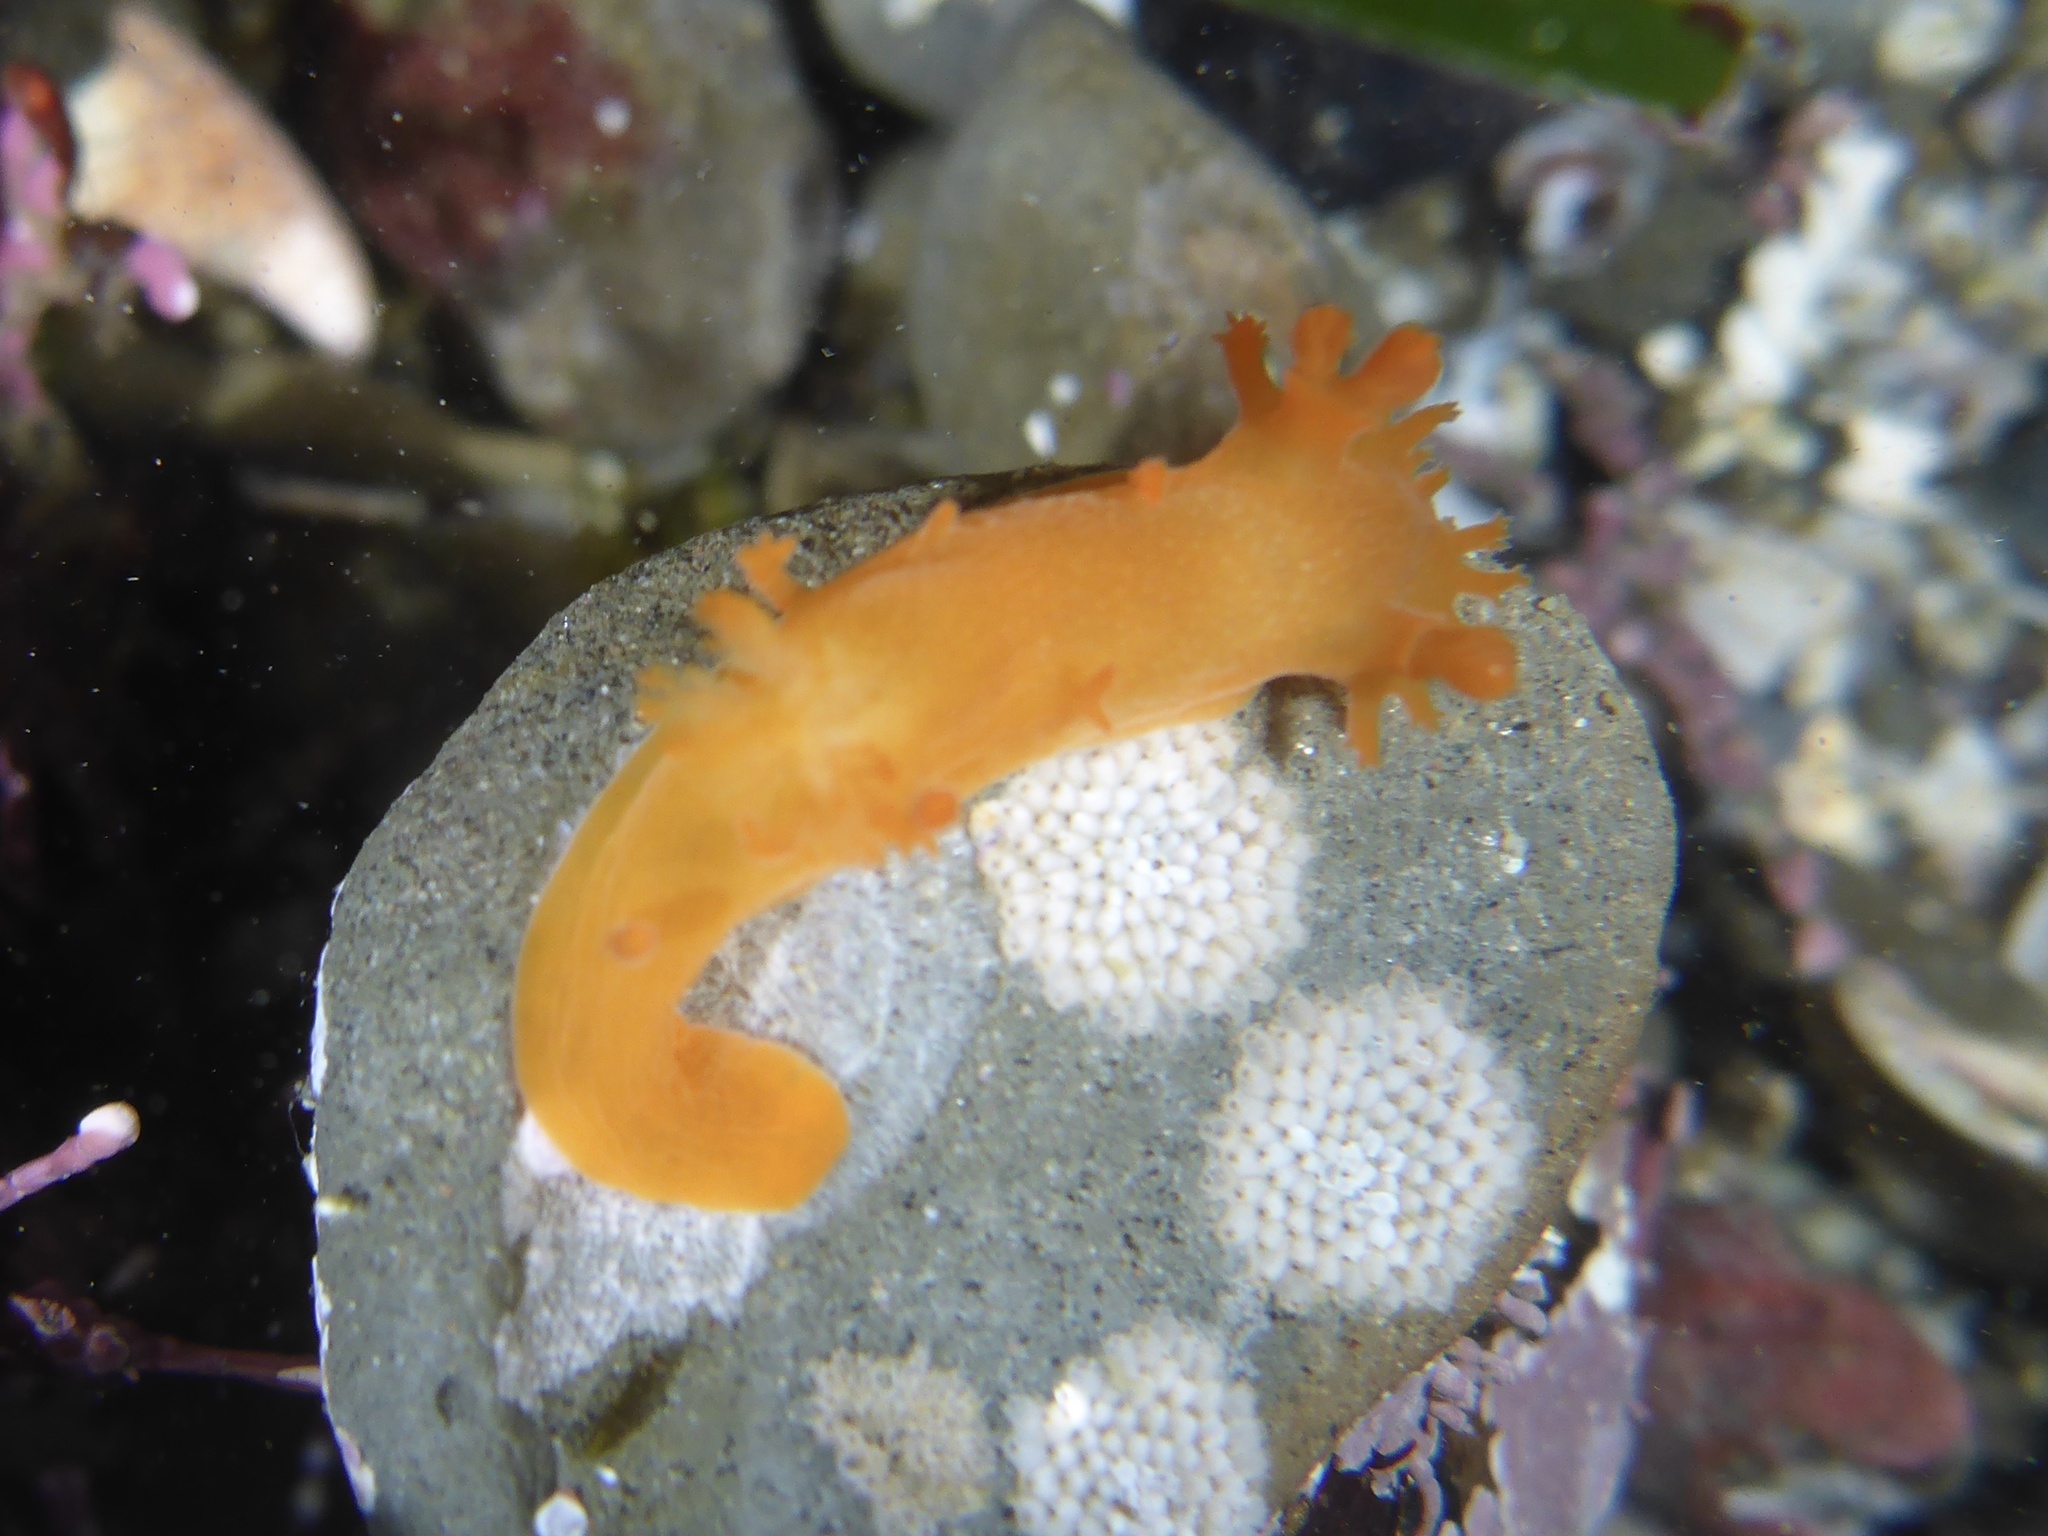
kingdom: Animalia
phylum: Mollusca
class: Gastropoda
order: Nudibranchia
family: Polyceridae
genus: Triopha
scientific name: Triopha maculata
